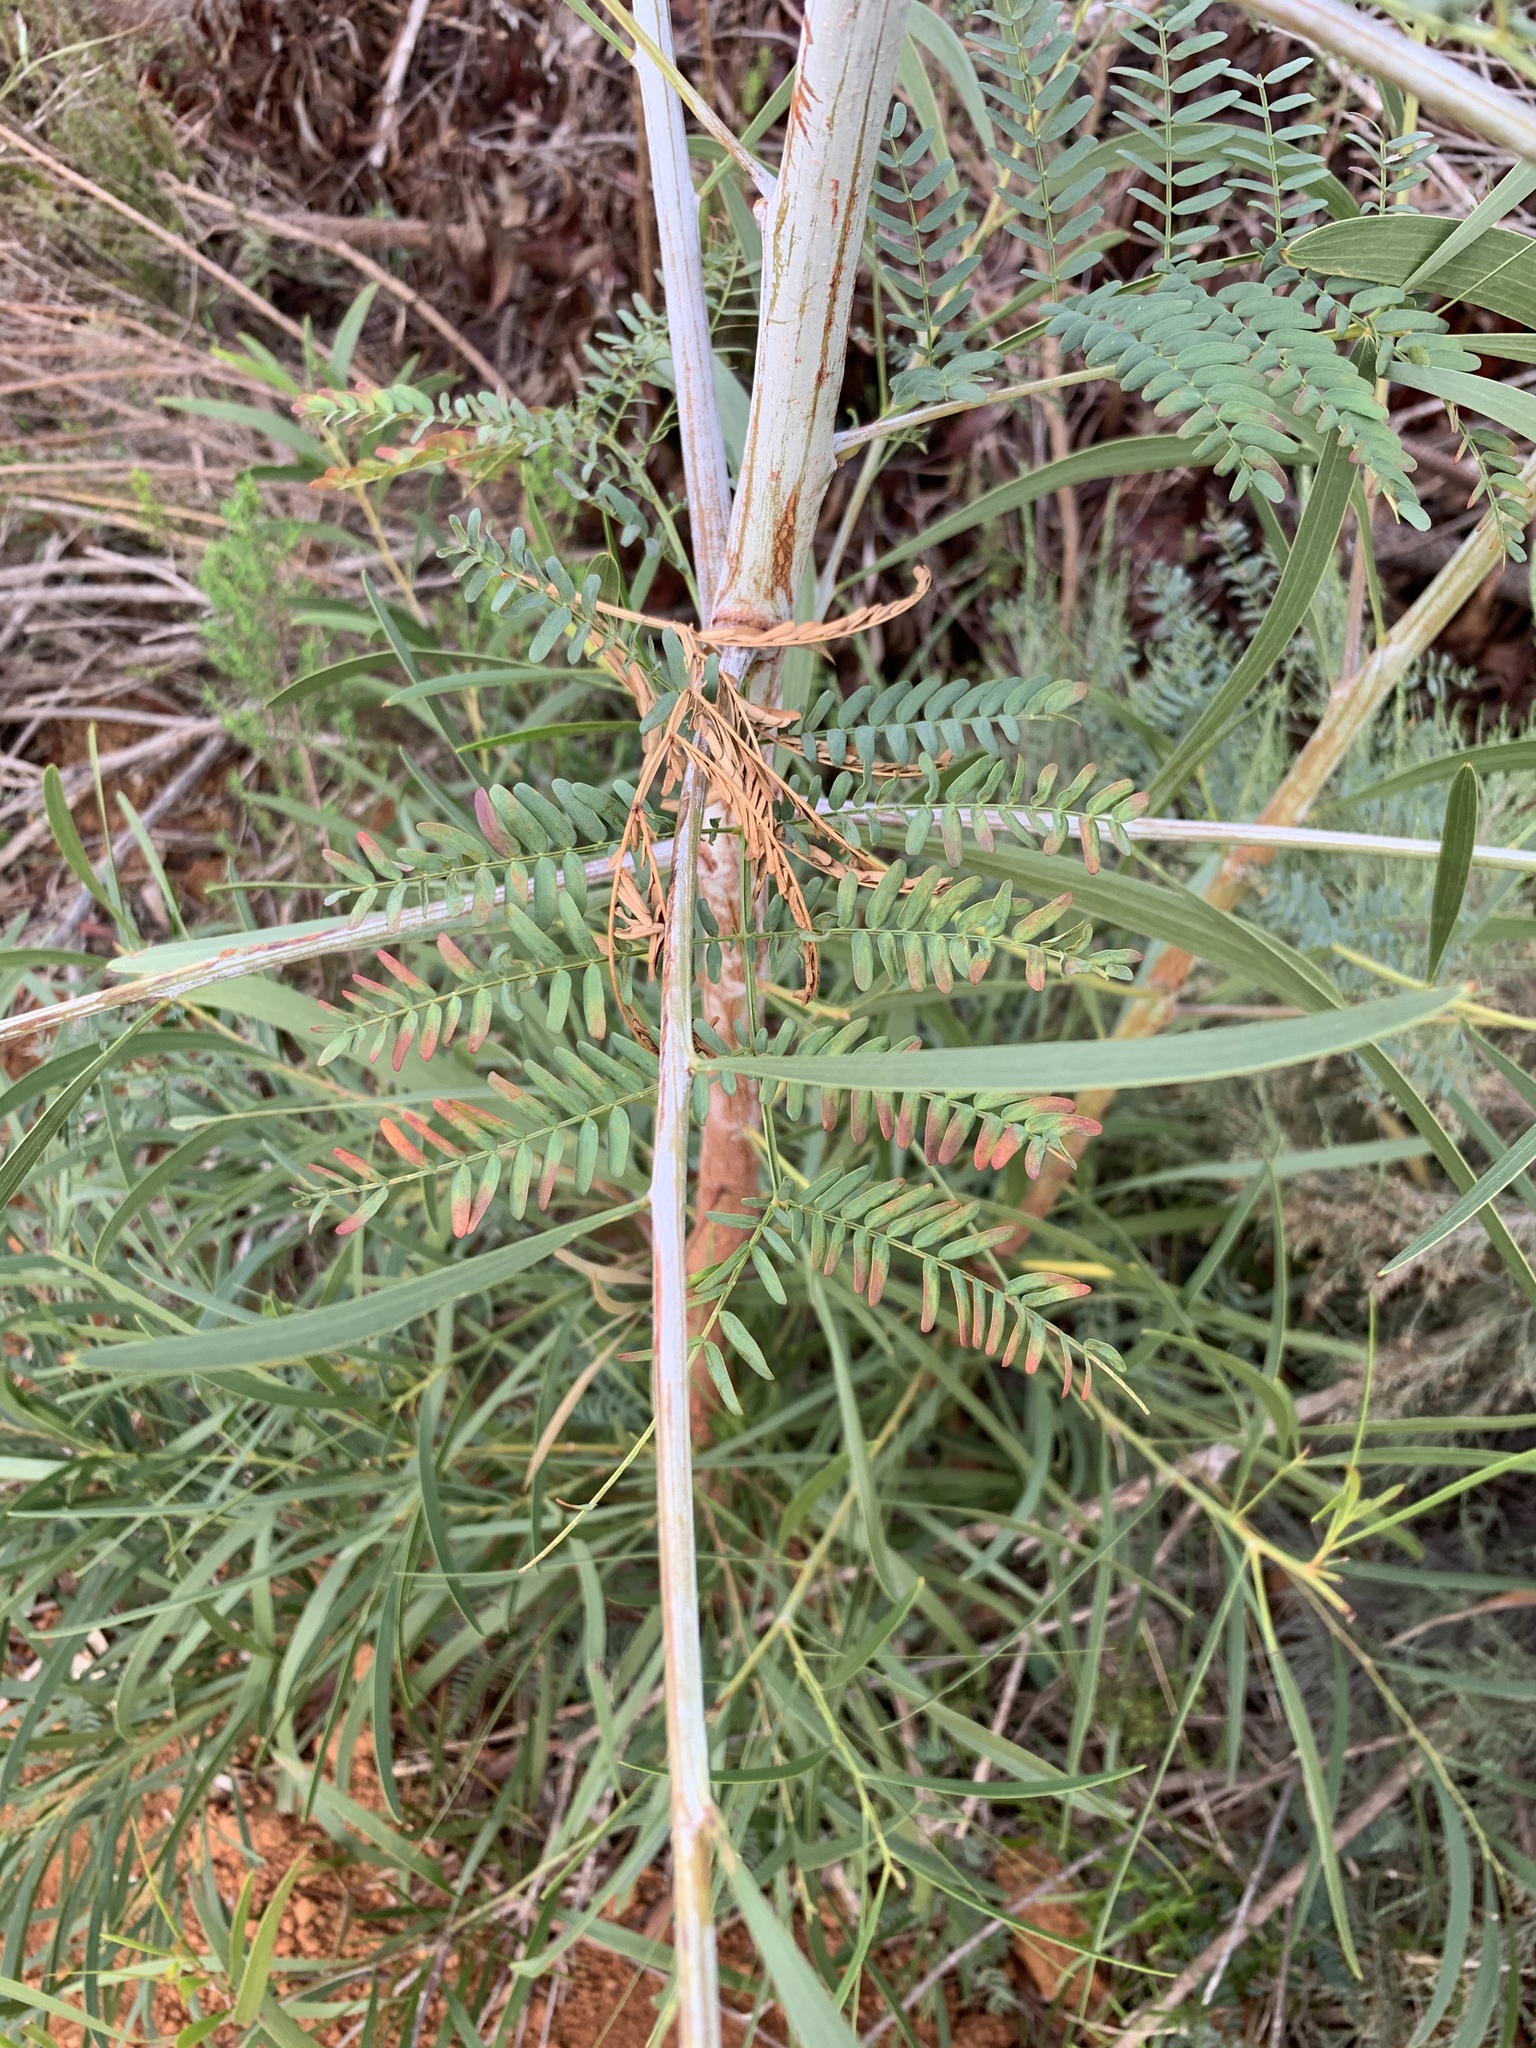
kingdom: Plantae
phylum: Tracheophyta
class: Magnoliopsida
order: Fabales
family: Fabaceae
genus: Acacia
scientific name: Acacia implexa
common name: Black wattle
